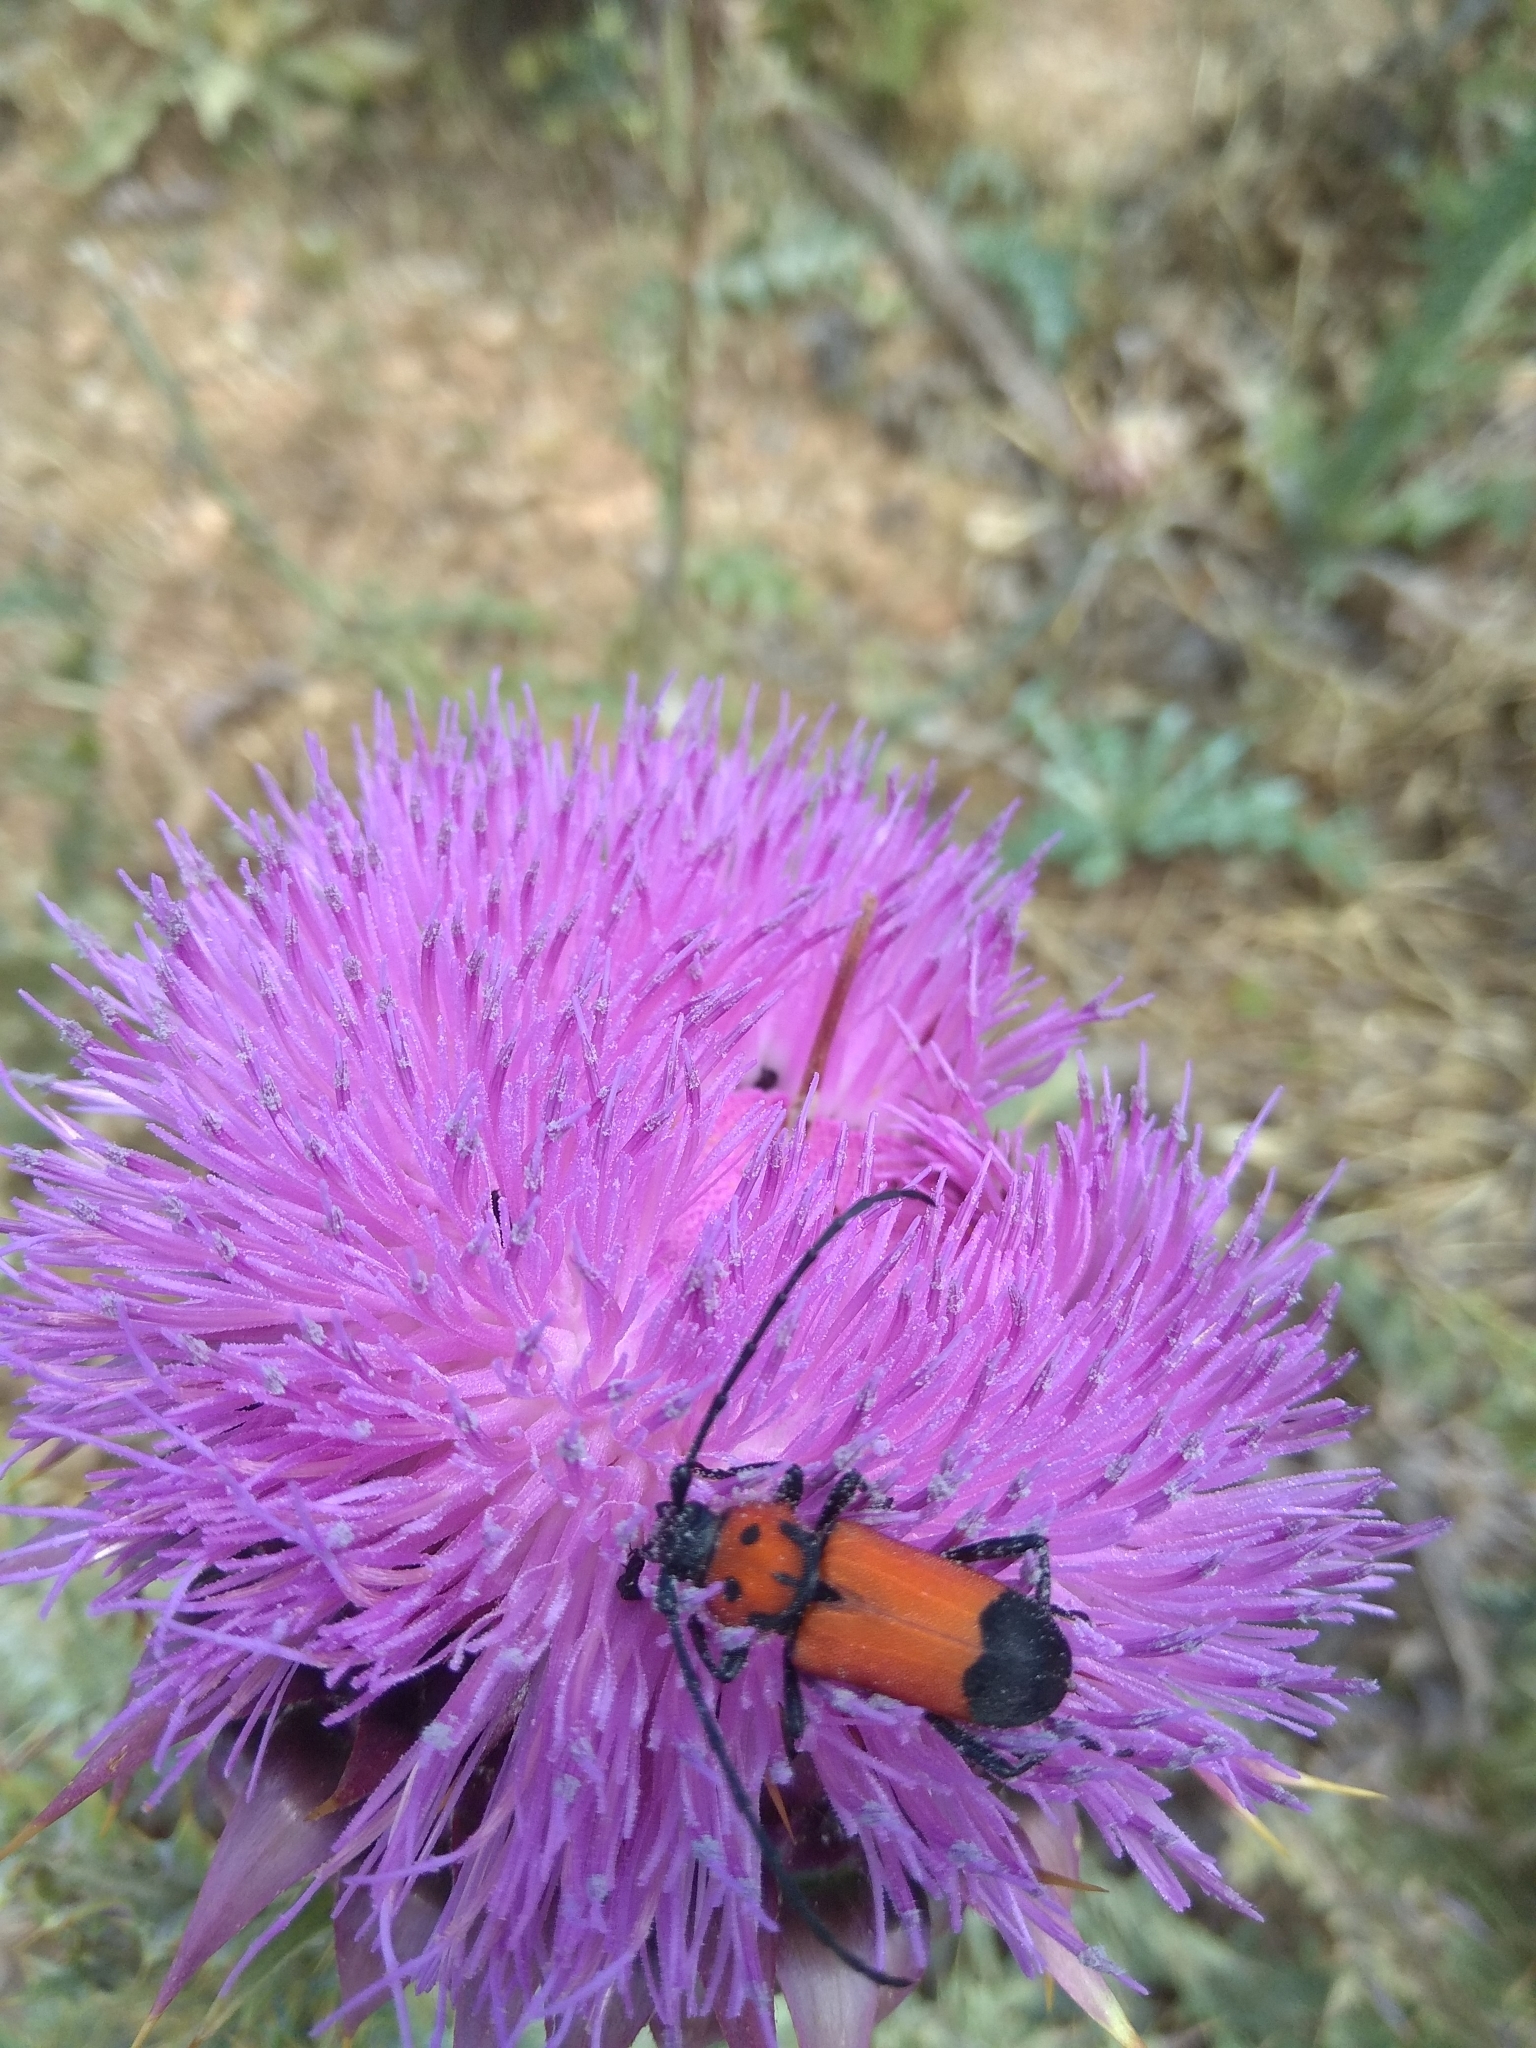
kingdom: Animalia
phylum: Arthropoda
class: Insecta
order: Coleoptera
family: Cerambycidae
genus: Purpuricenus
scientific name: Purpuricenus desfontainii
